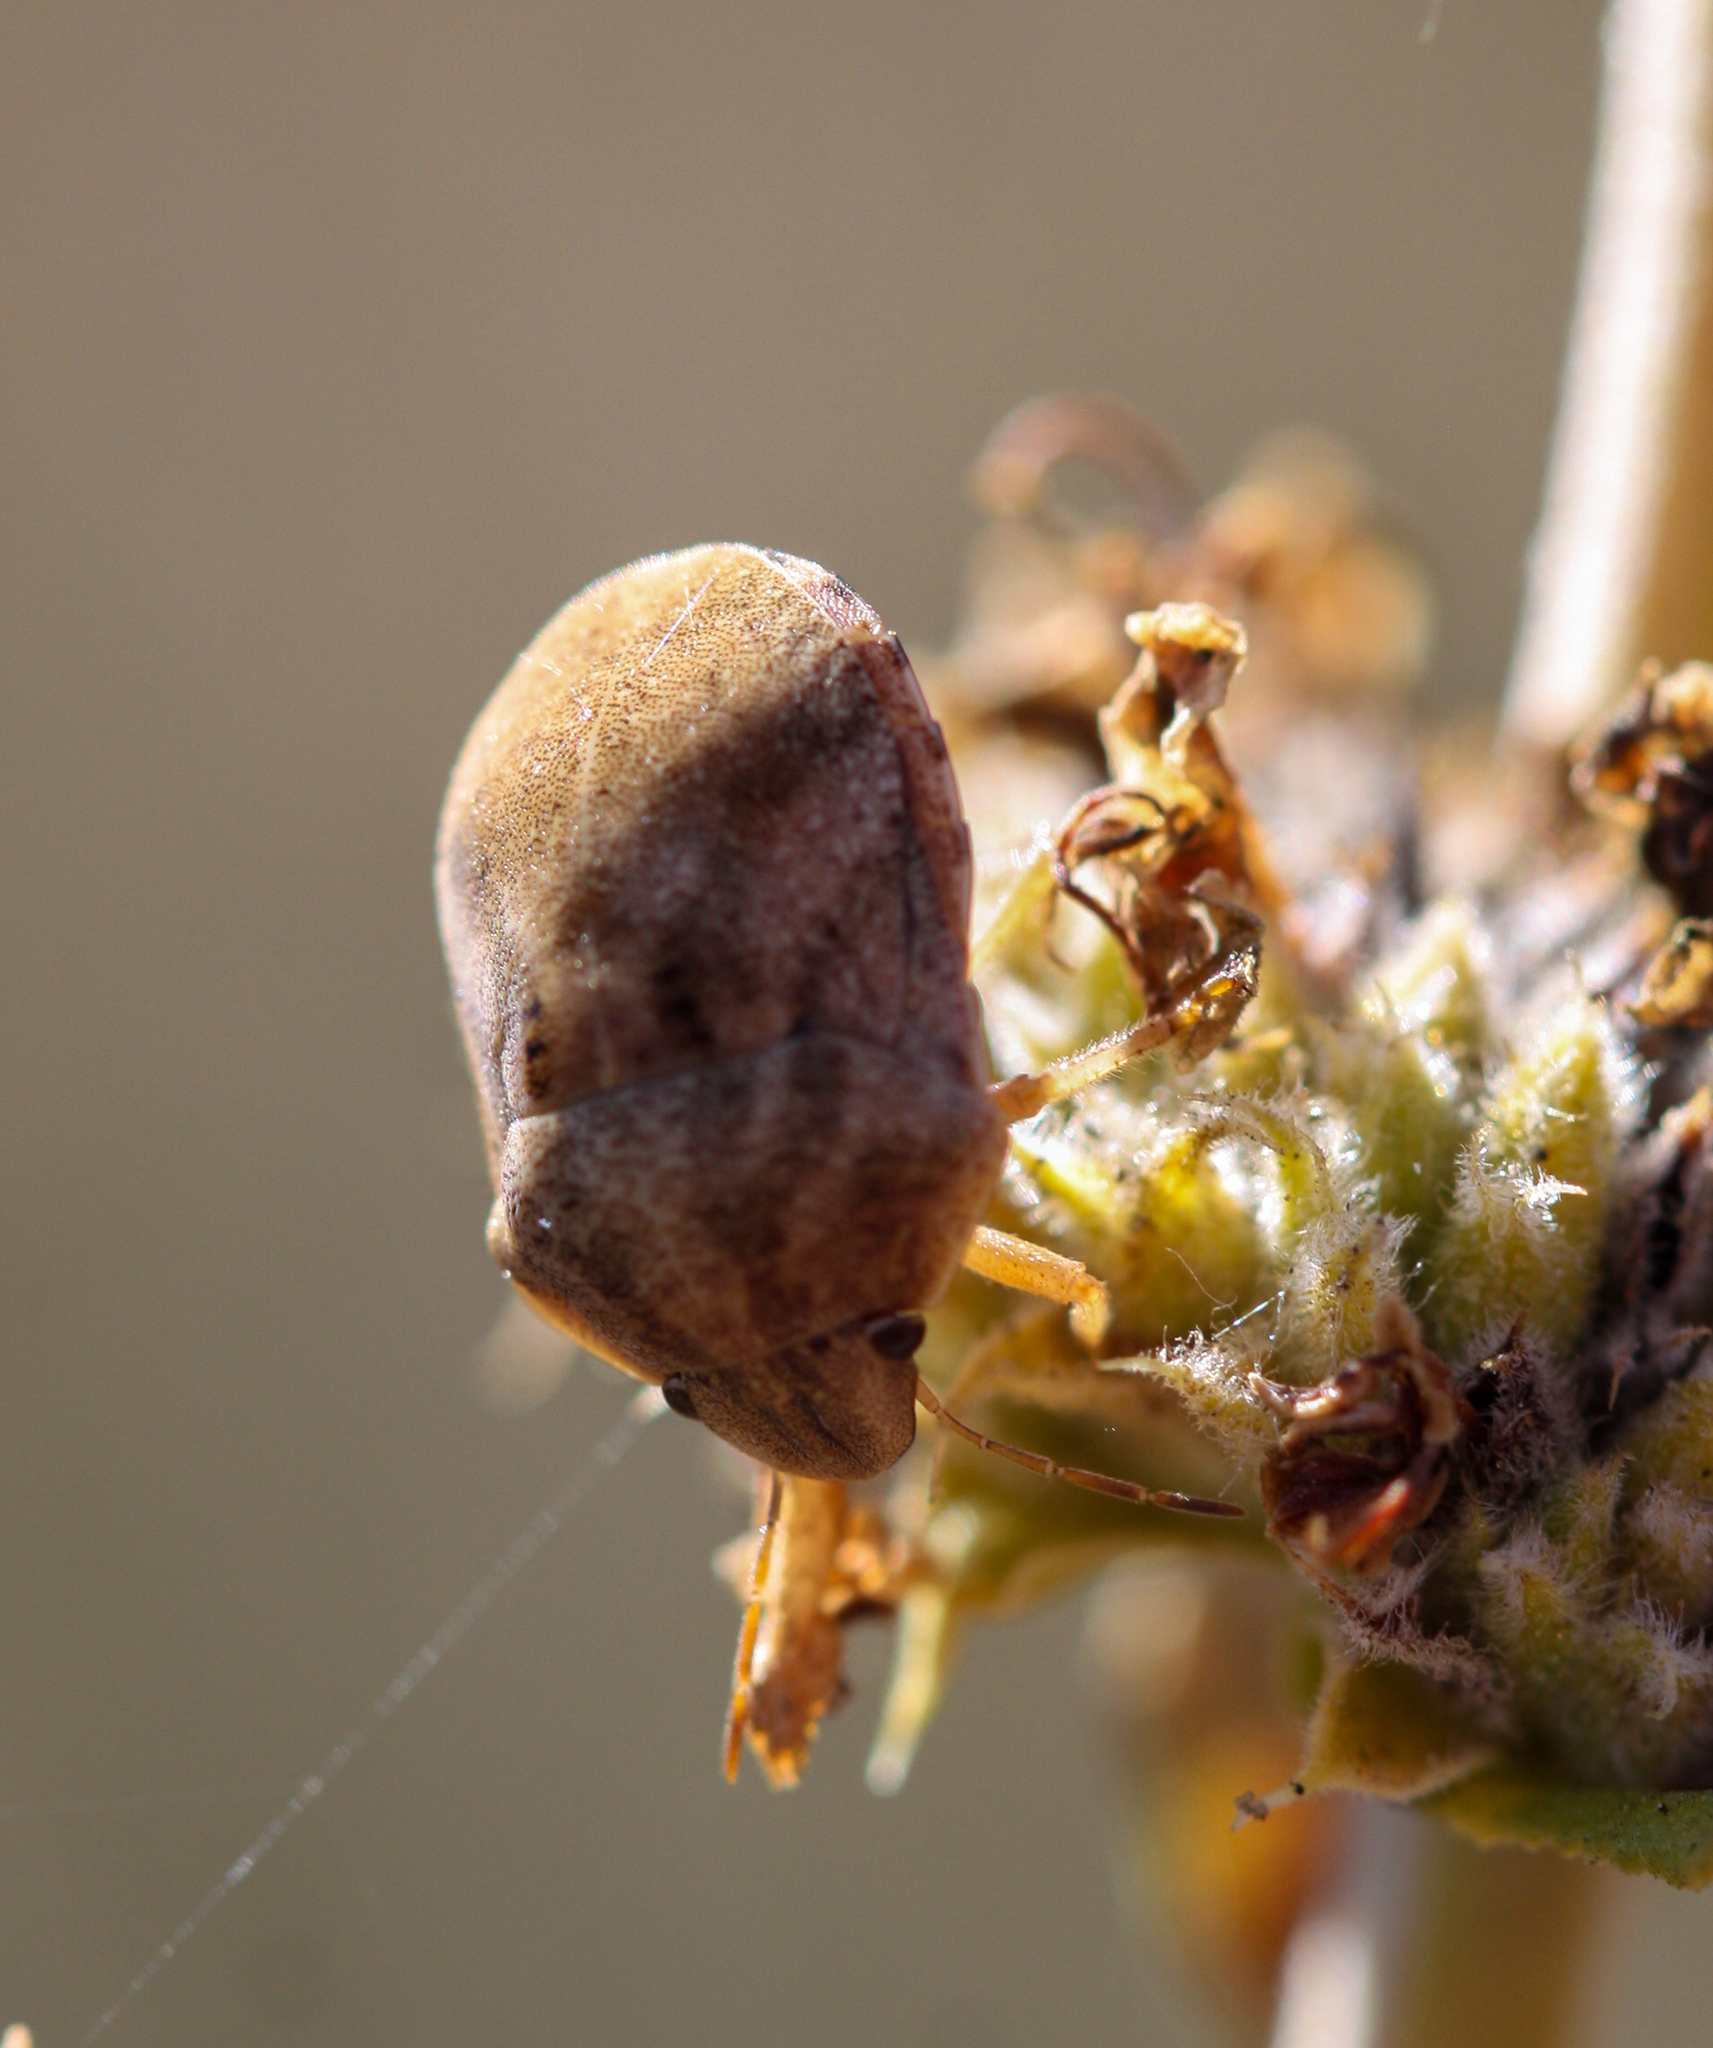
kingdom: Animalia
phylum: Arthropoda
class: Insecta
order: Hemiptera
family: Scutelleridae
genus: Sphyrocoris
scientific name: Sphyrocoris obliquus
